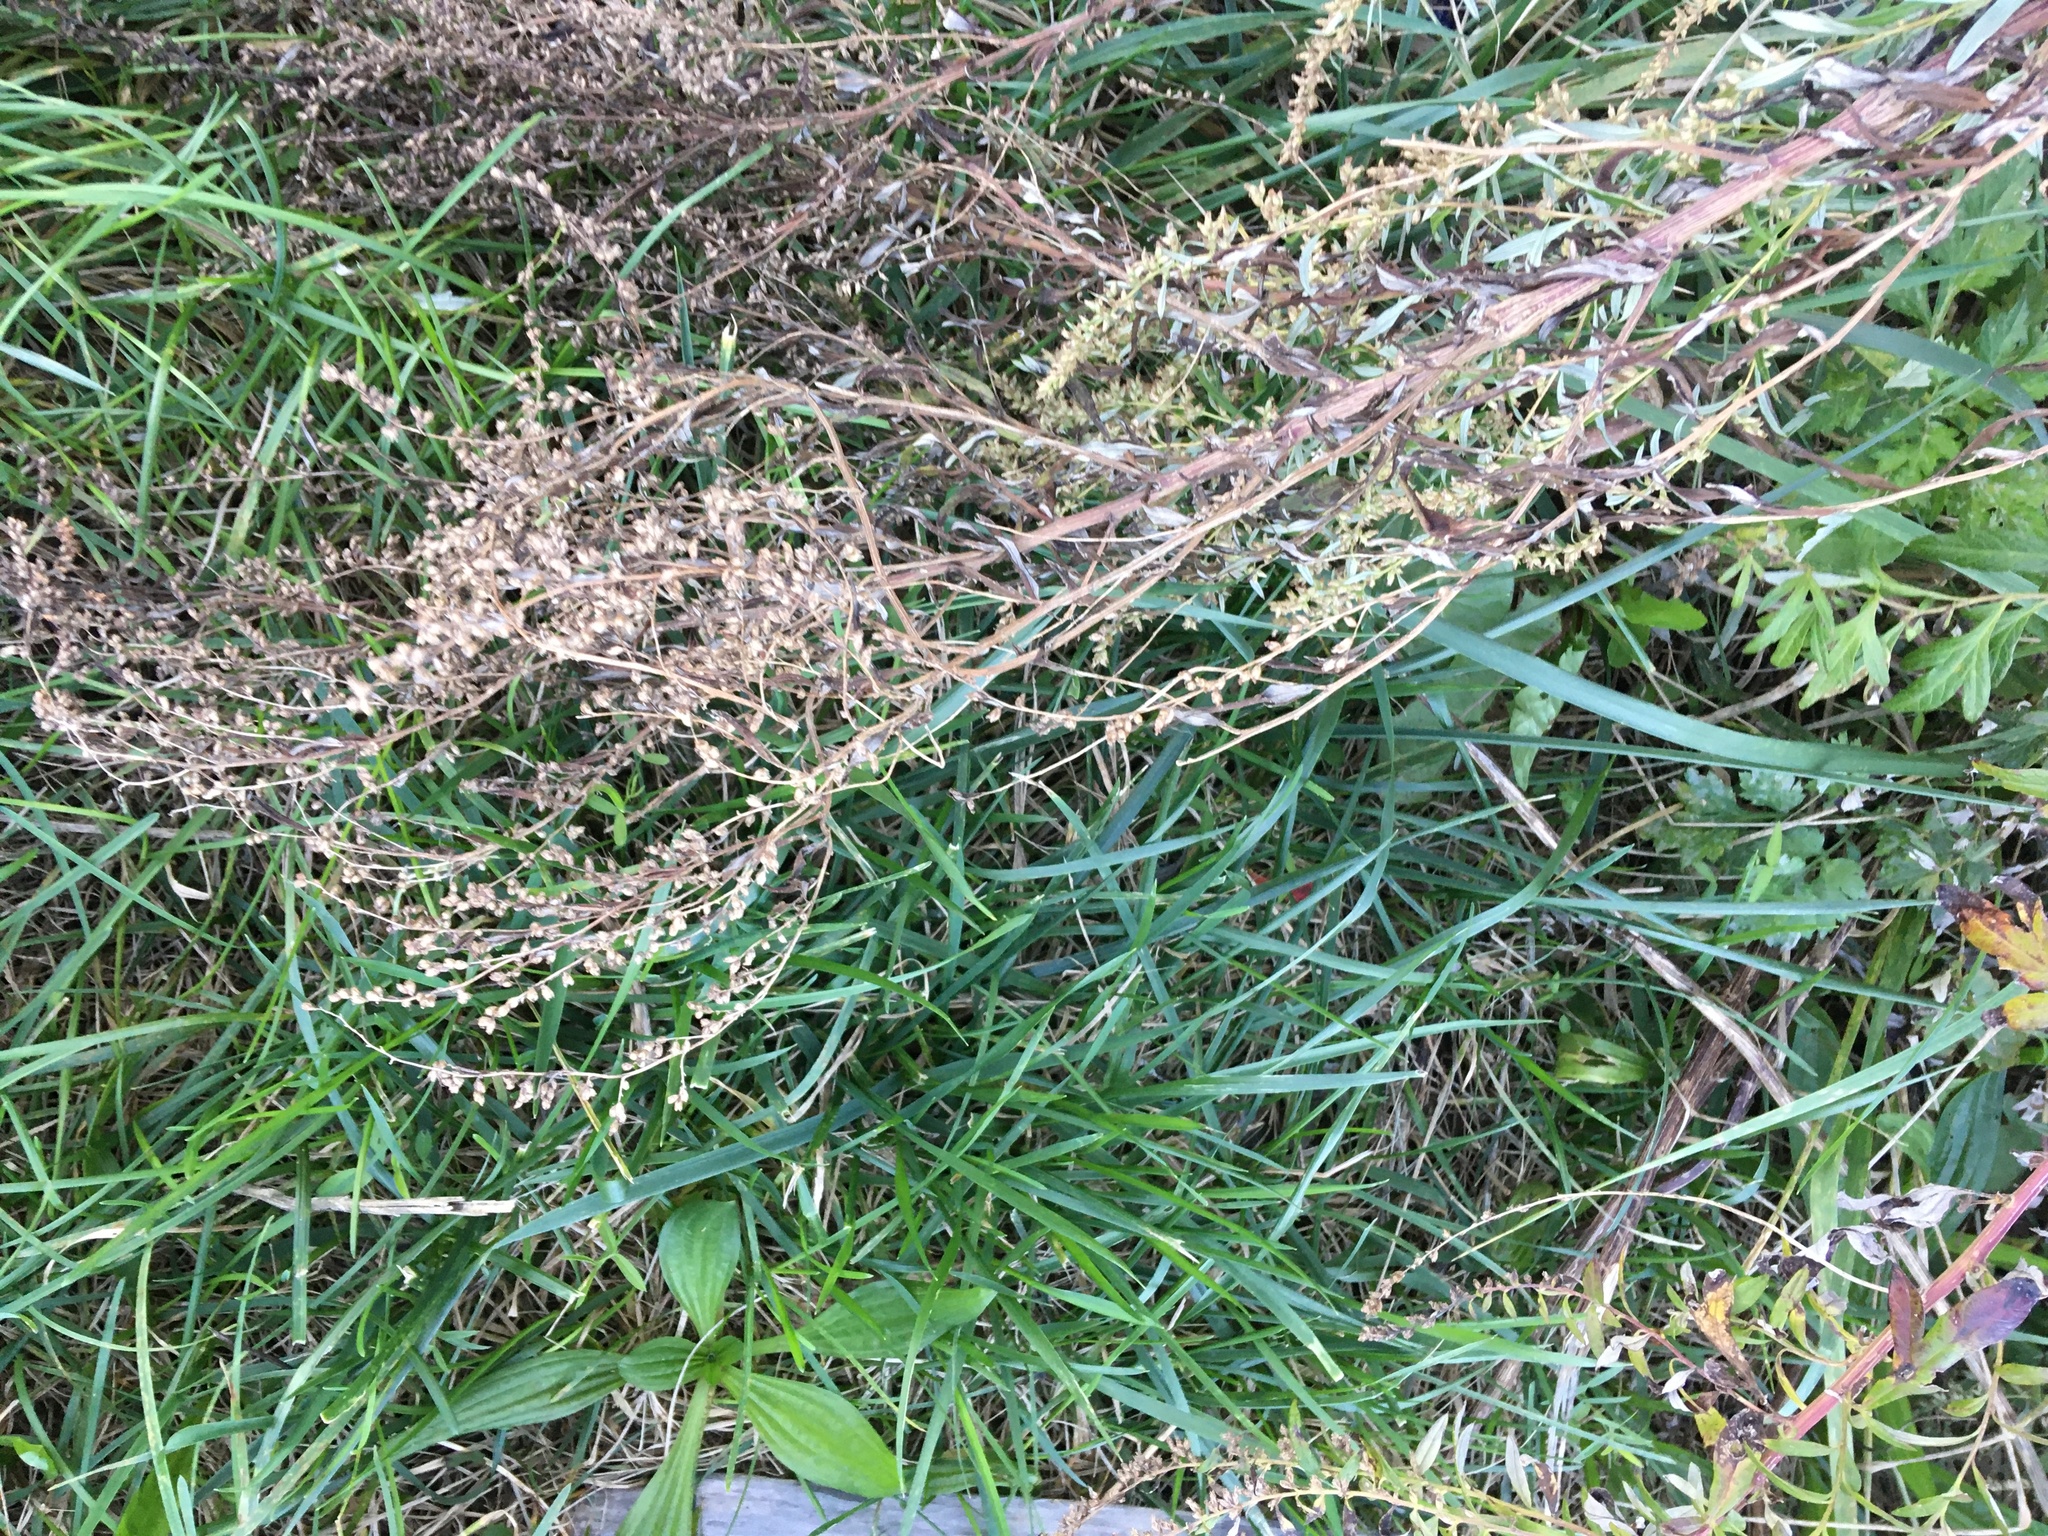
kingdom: Plantae
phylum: Tracheophyta
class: Magnoliopsida
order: Asterales
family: Asteraceae
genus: Artemisia
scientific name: Artemisia vulgaris
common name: Mugwort
